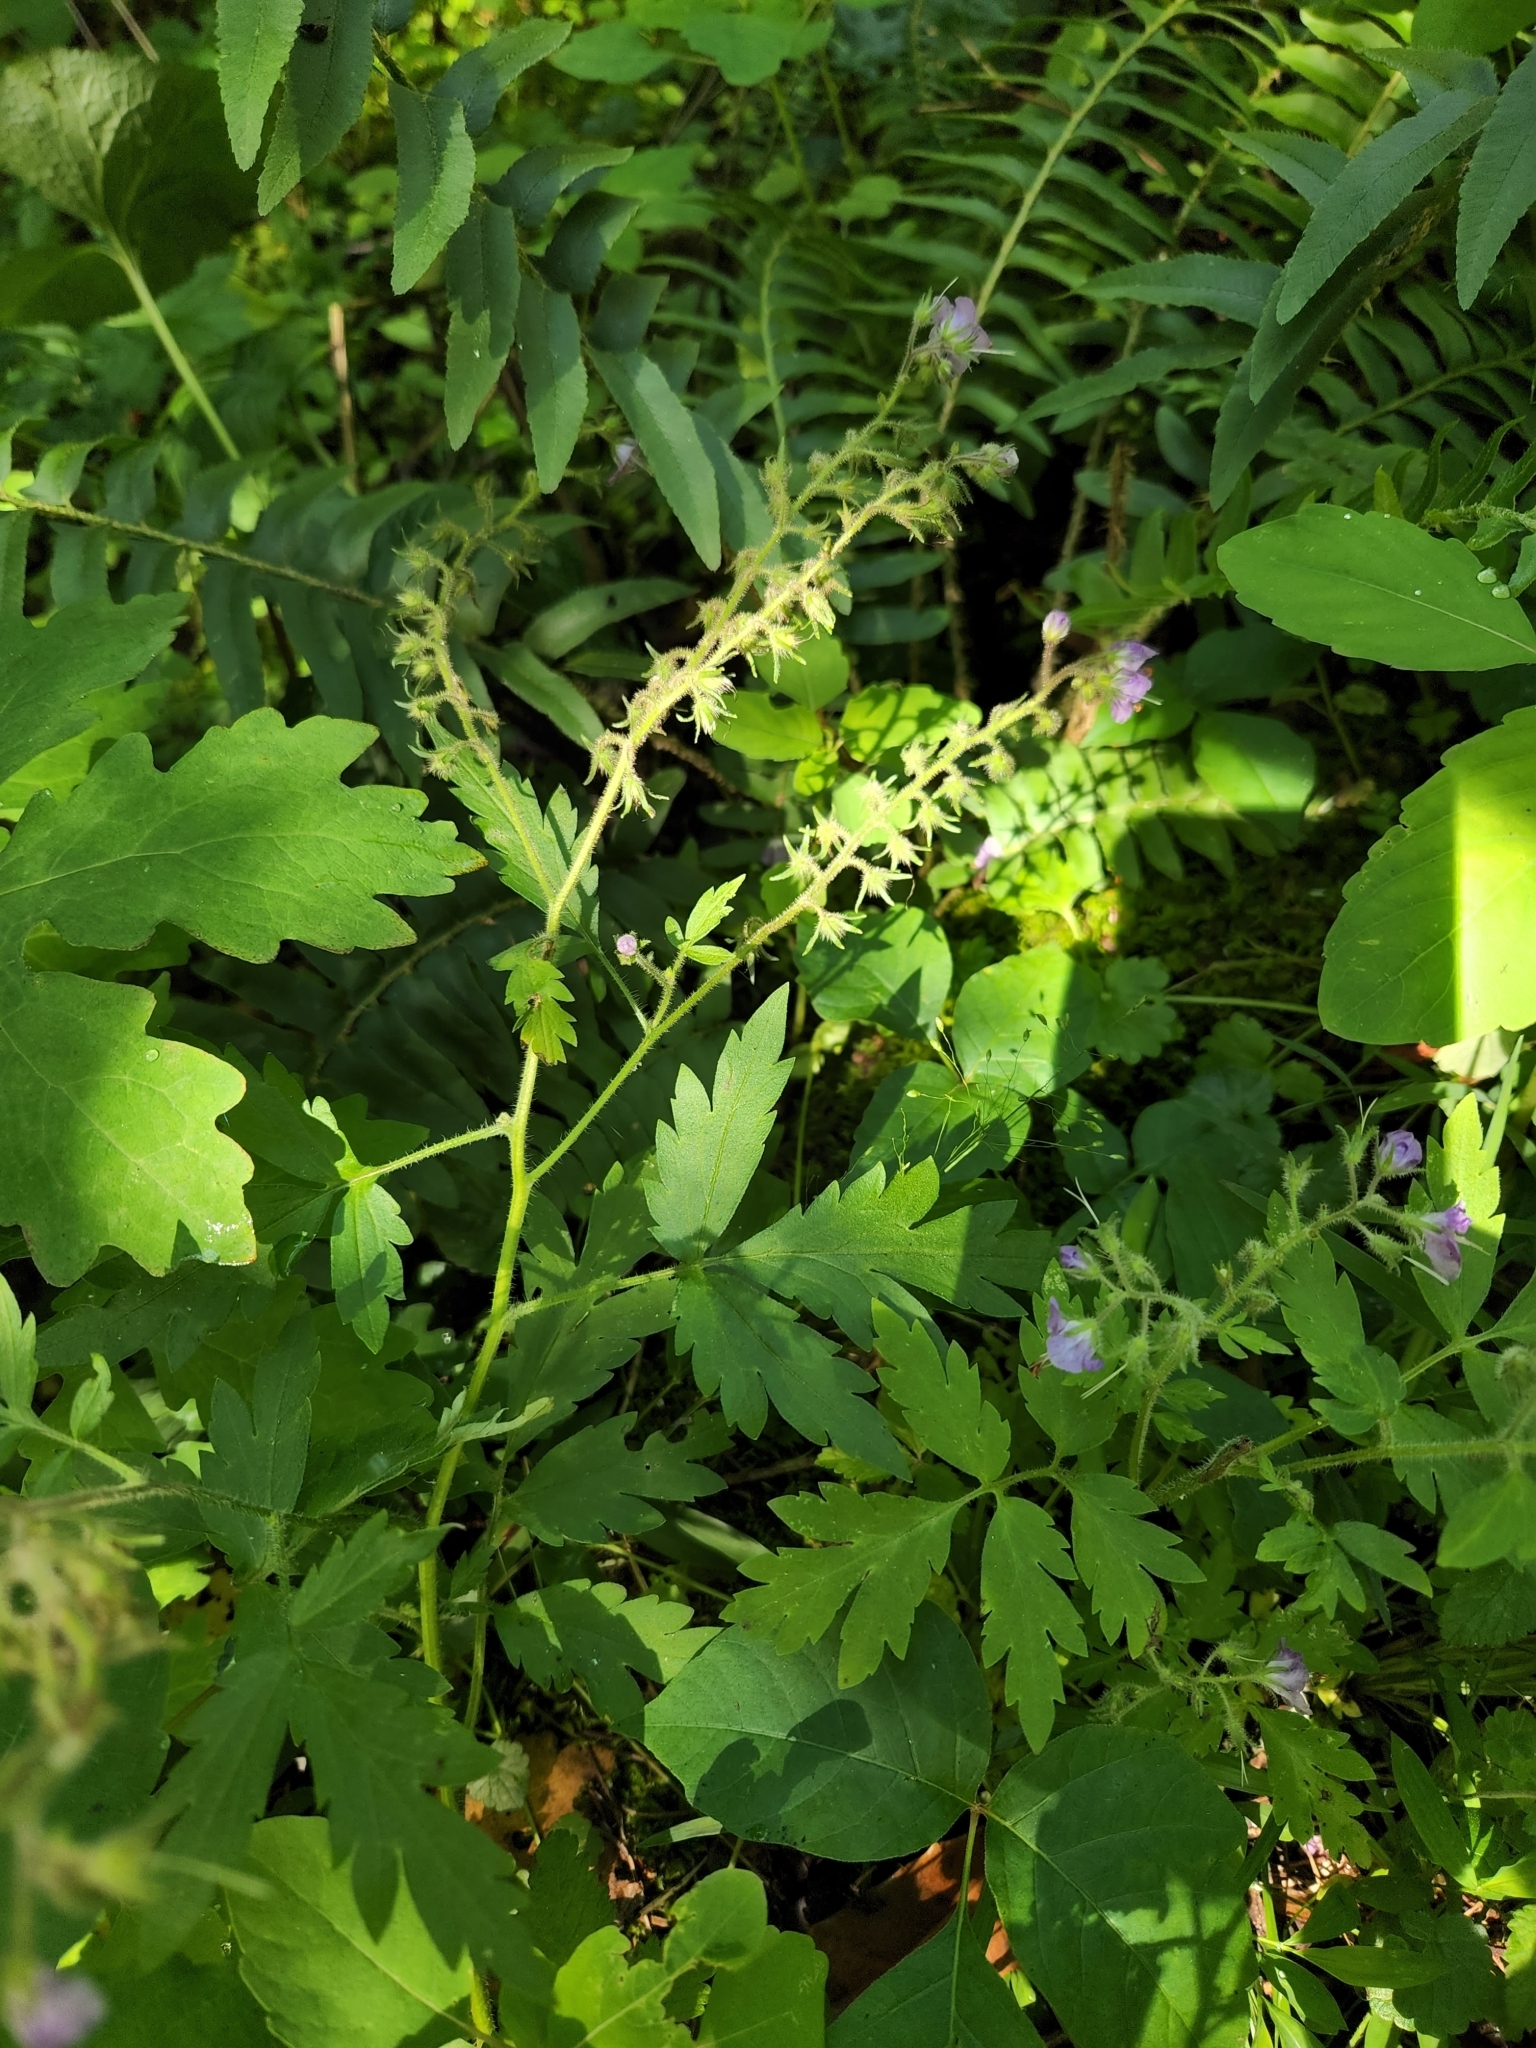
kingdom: Plantae
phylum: Tracheophyta
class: Magnoliopsida
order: Boraginales
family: Hydrophyllaceae
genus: Phacelia
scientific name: Phacelia bipinnatifida
